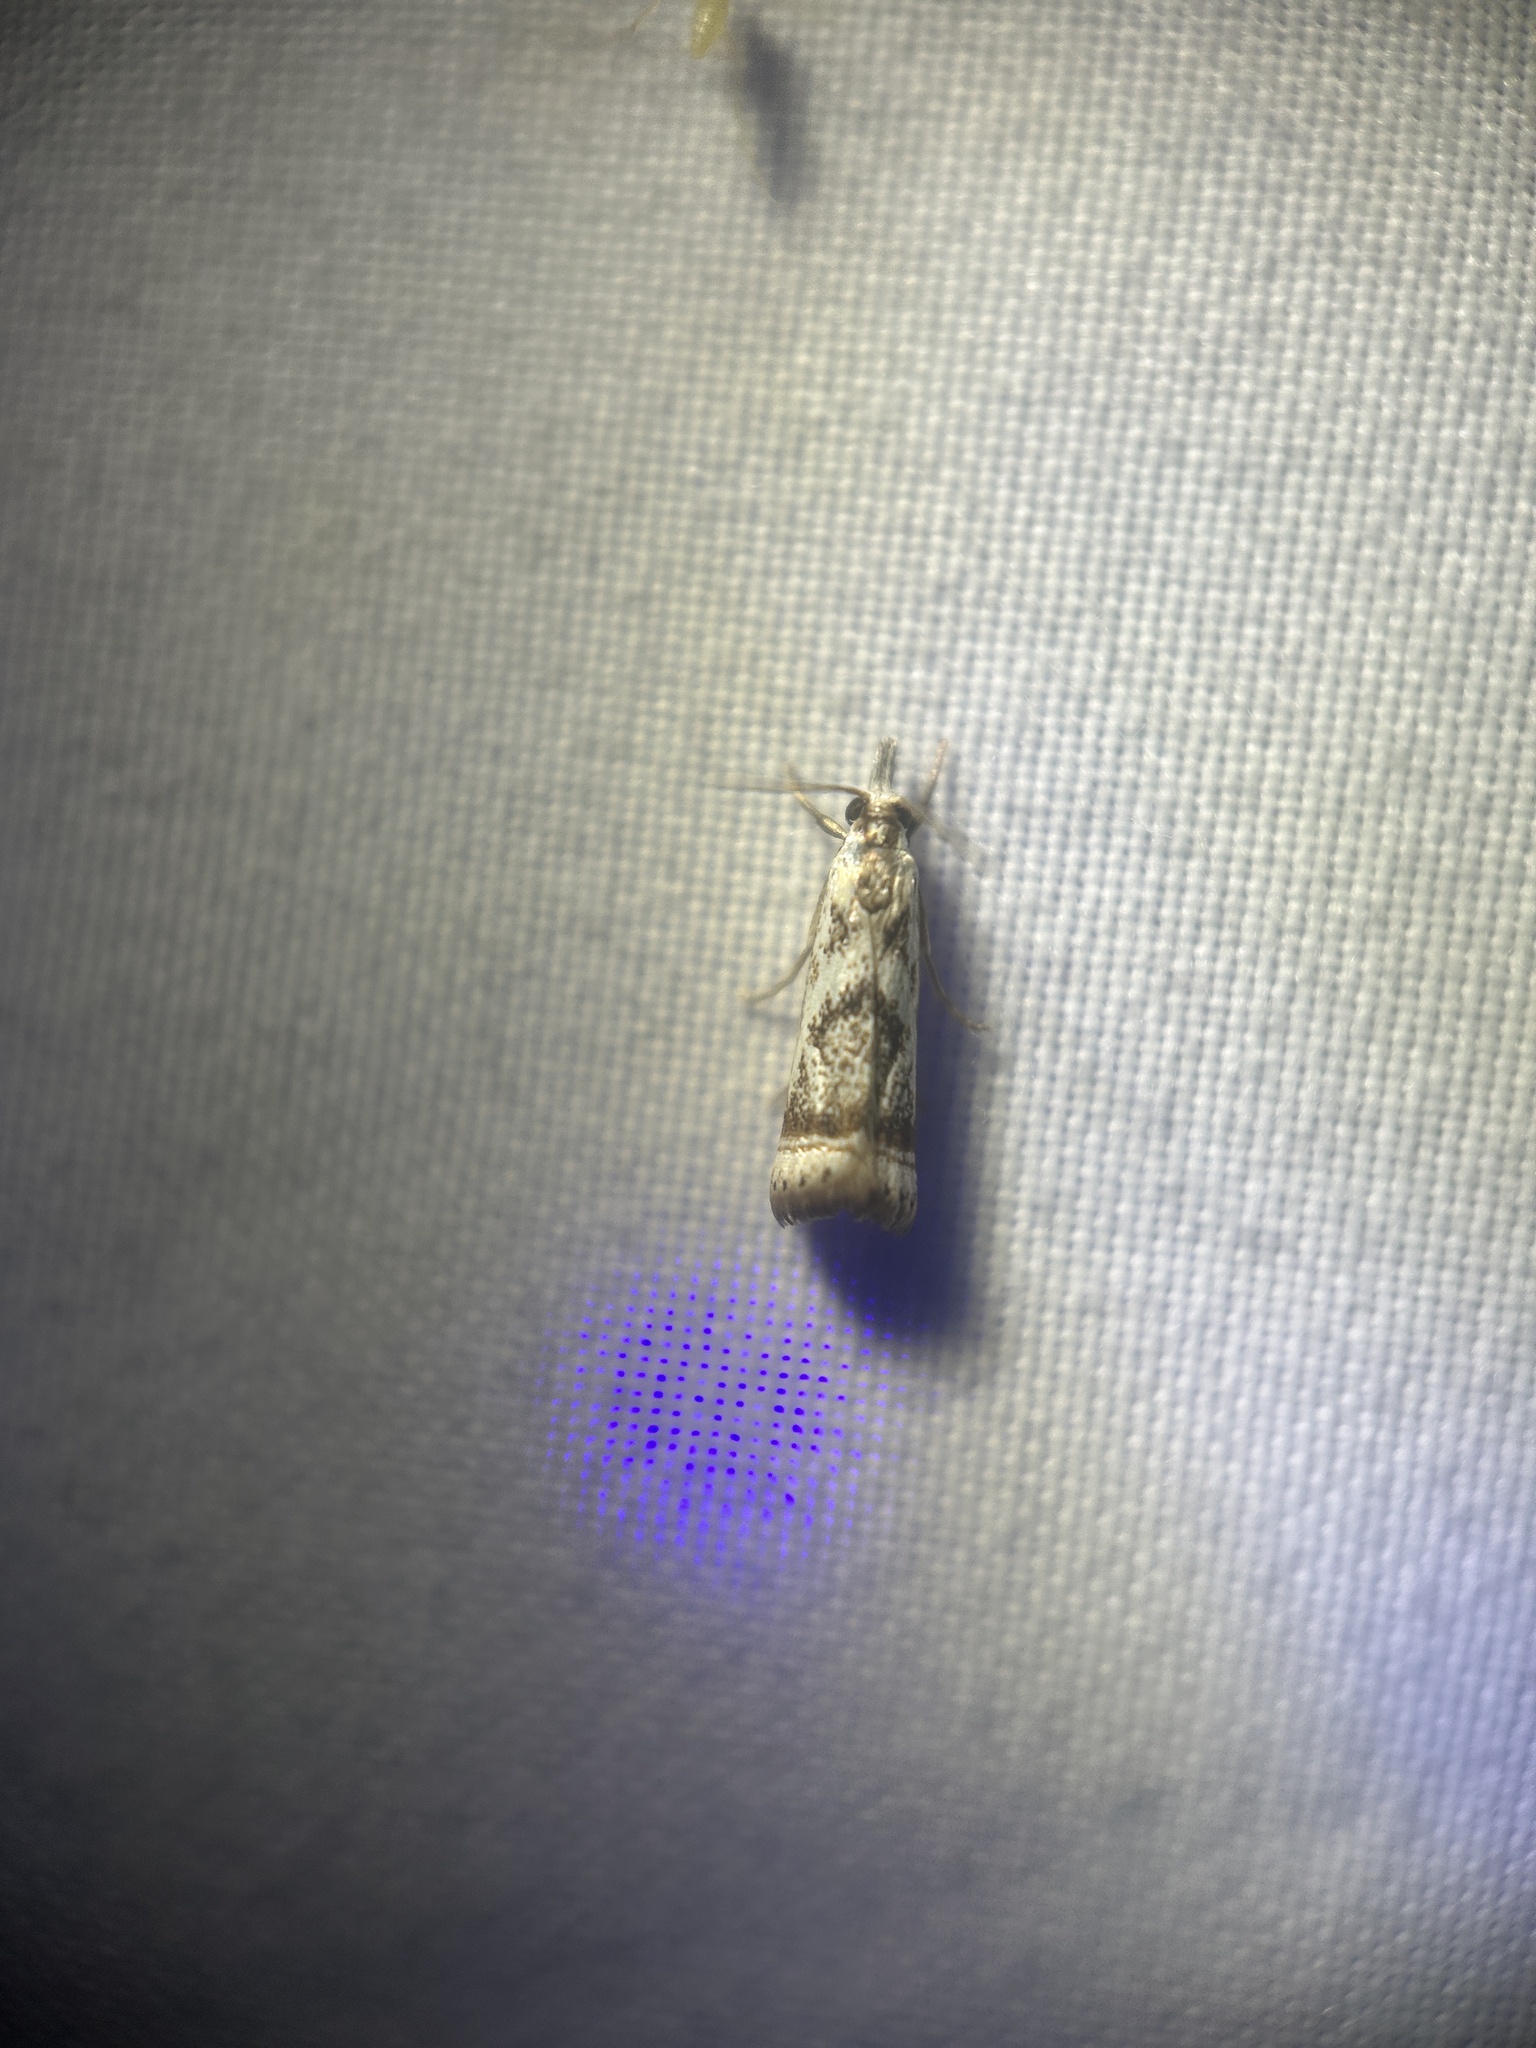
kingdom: Animalia
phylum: Arthropoda
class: Insecta
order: Lepidoptera
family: Crambidae
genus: Microcrambus
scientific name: Microcrambus elegans
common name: Elegant grass-veneer
